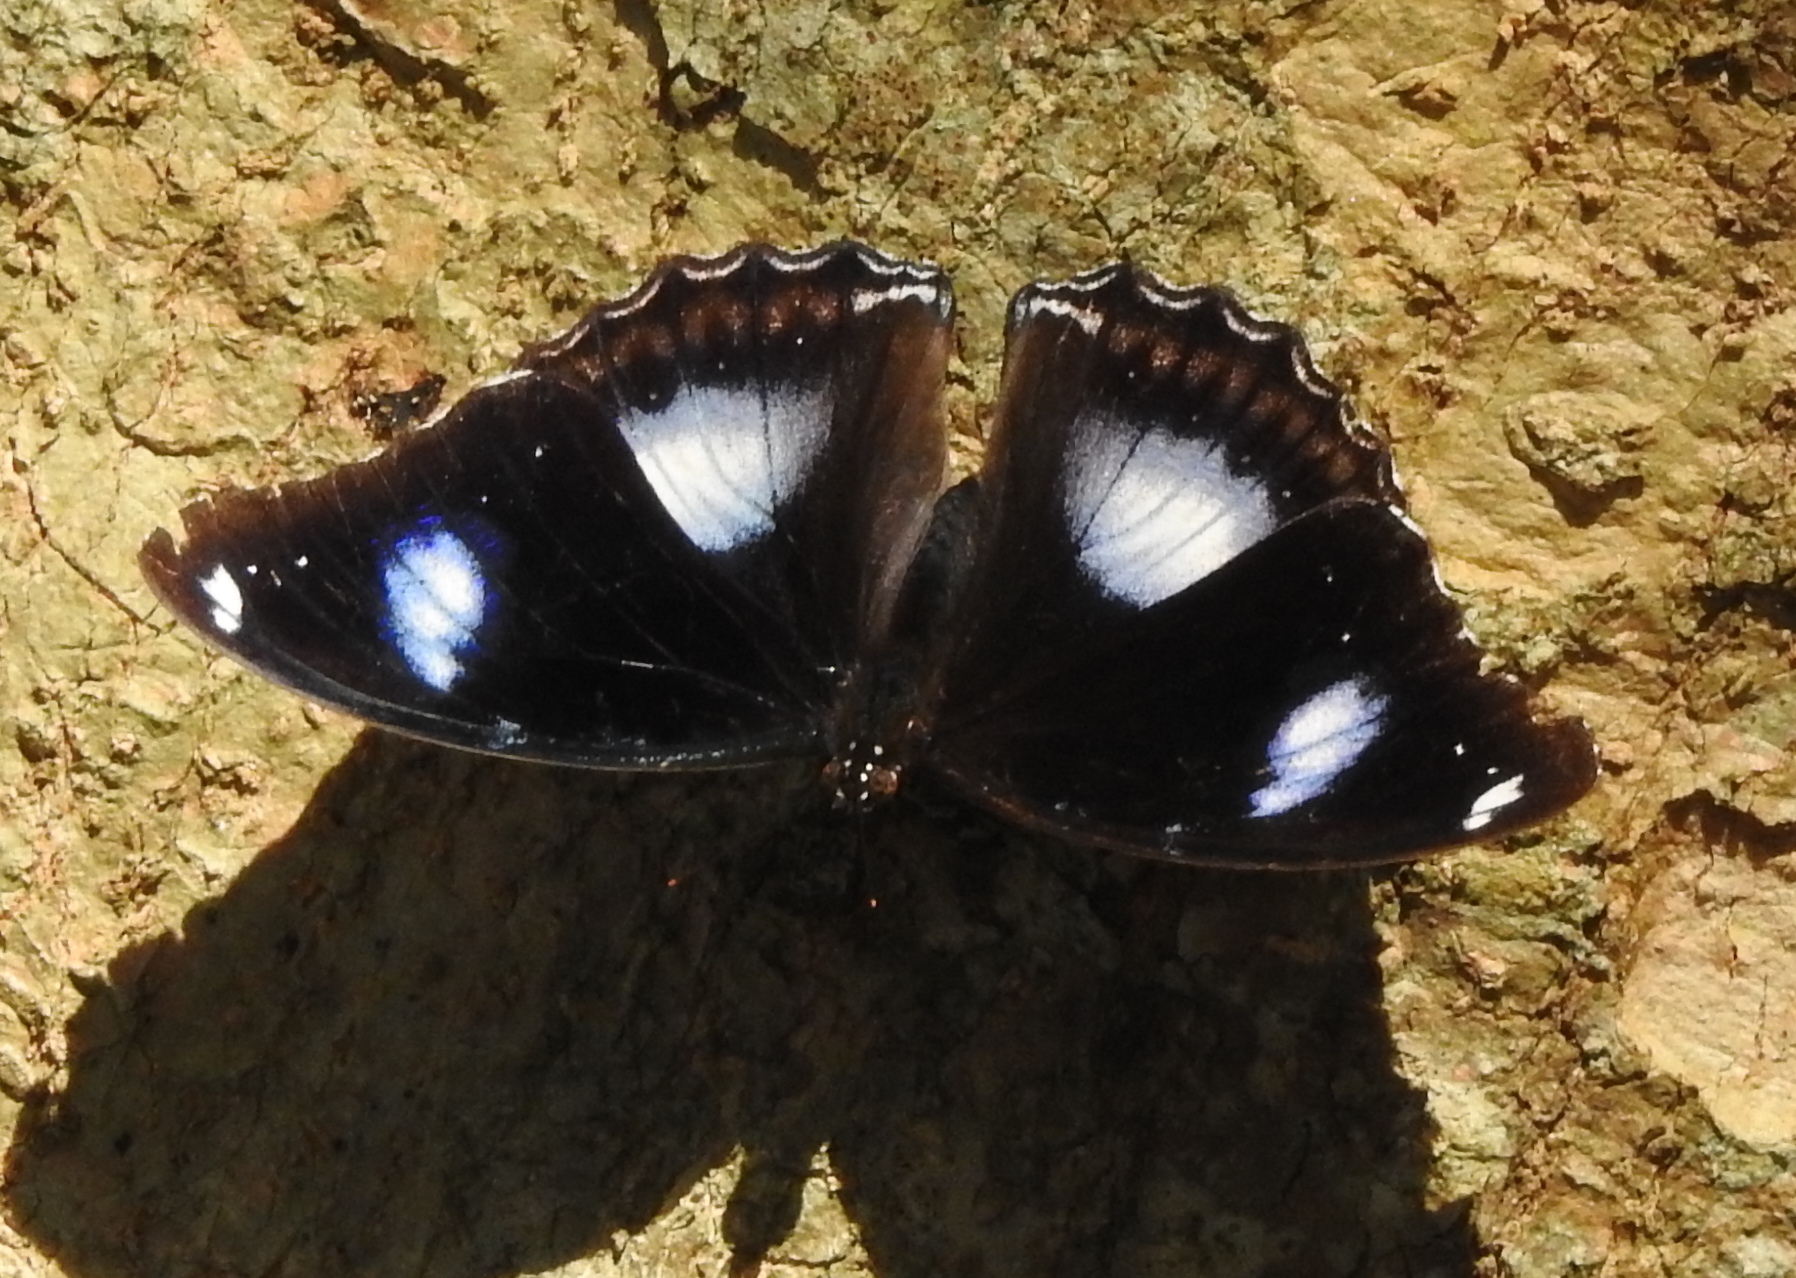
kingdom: Animalia
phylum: Arthropoda
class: Insecta
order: Lepidoptera
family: Nymphalidae
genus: Hypolimnas
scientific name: Hypolimnas bolina
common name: Great eggfly
